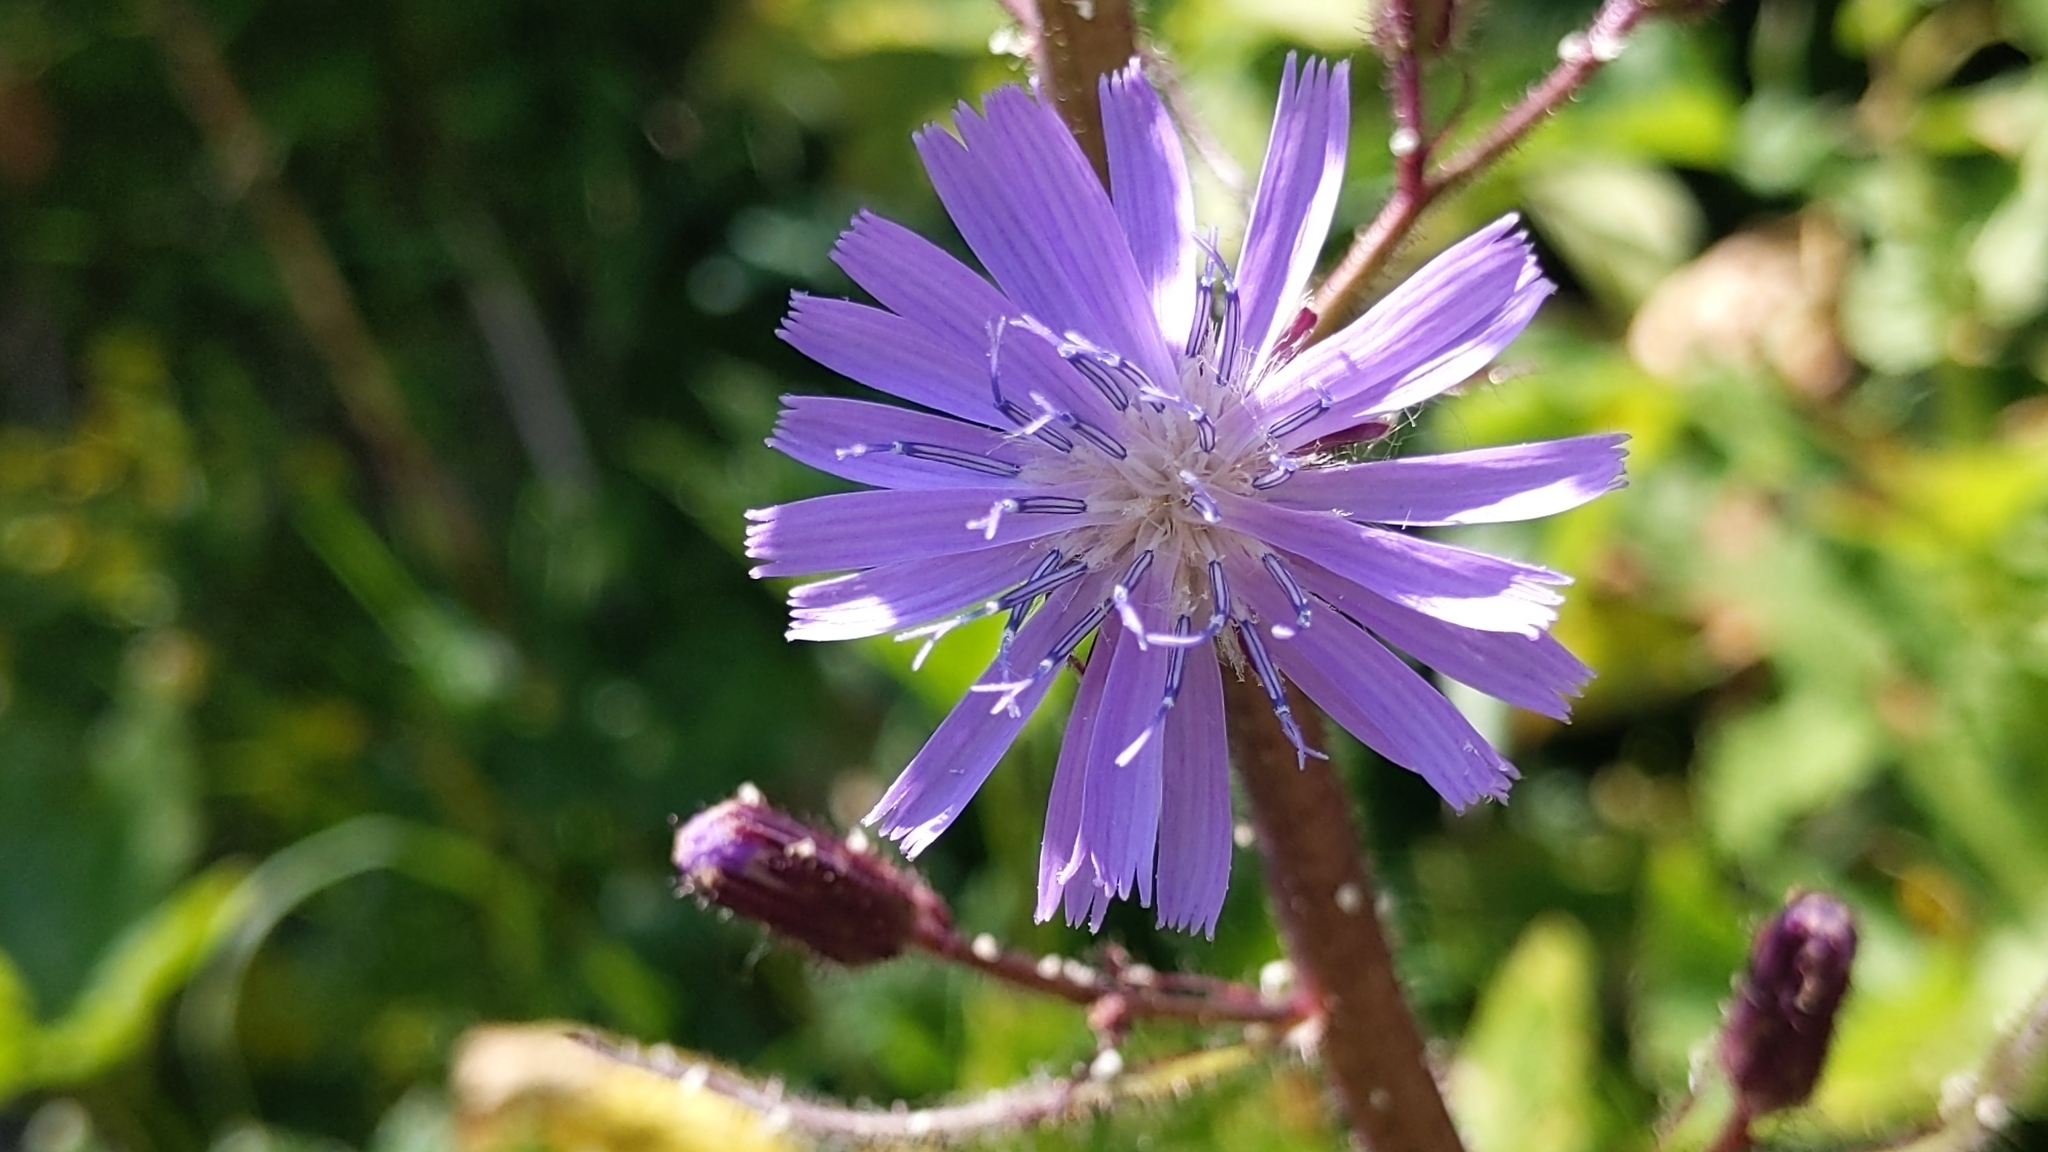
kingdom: Plantae
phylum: Tracheophyta
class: Magnoliopsida
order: Asterales
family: Asteraceae
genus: Cicerbita
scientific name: Cicerbita alpina
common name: Alpine blue-sow-thistle
